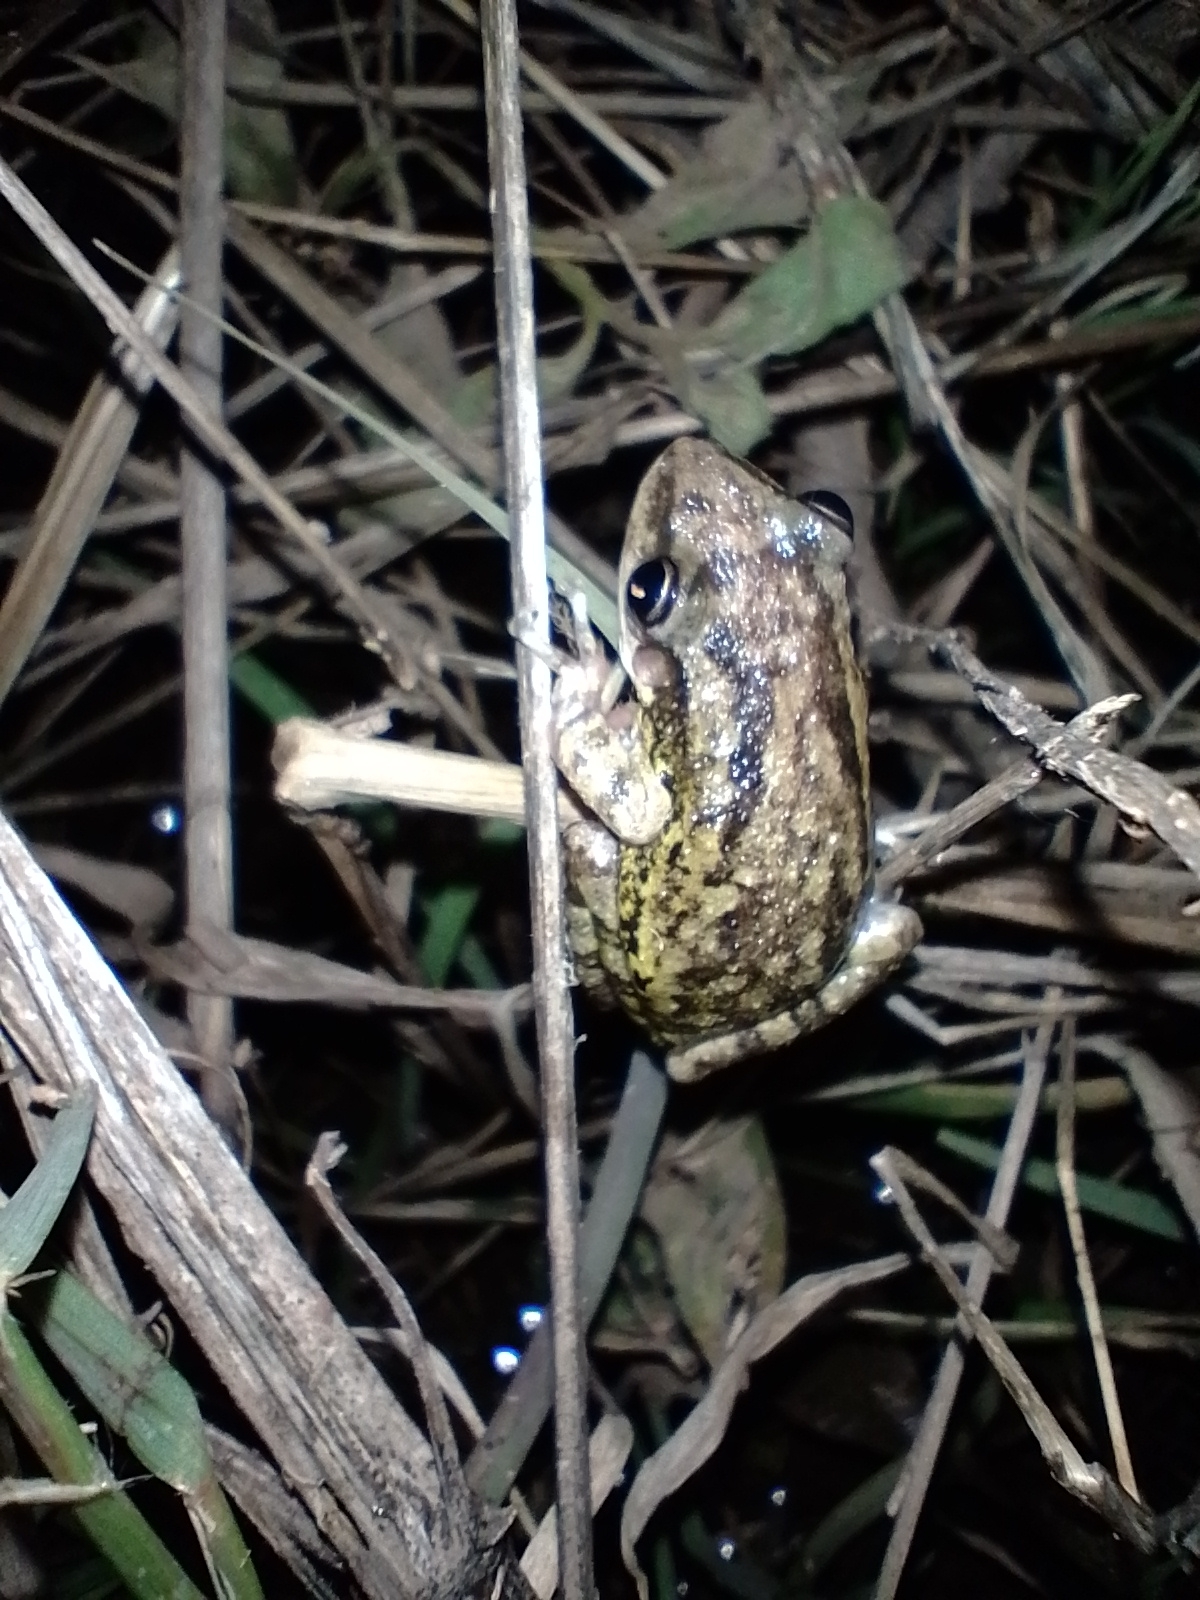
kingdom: Animalia
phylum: Chordata
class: Amphibia
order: Anura
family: Hylidae
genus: Scinax
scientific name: Scinax nasicus
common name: Lesser snouted treefrog
